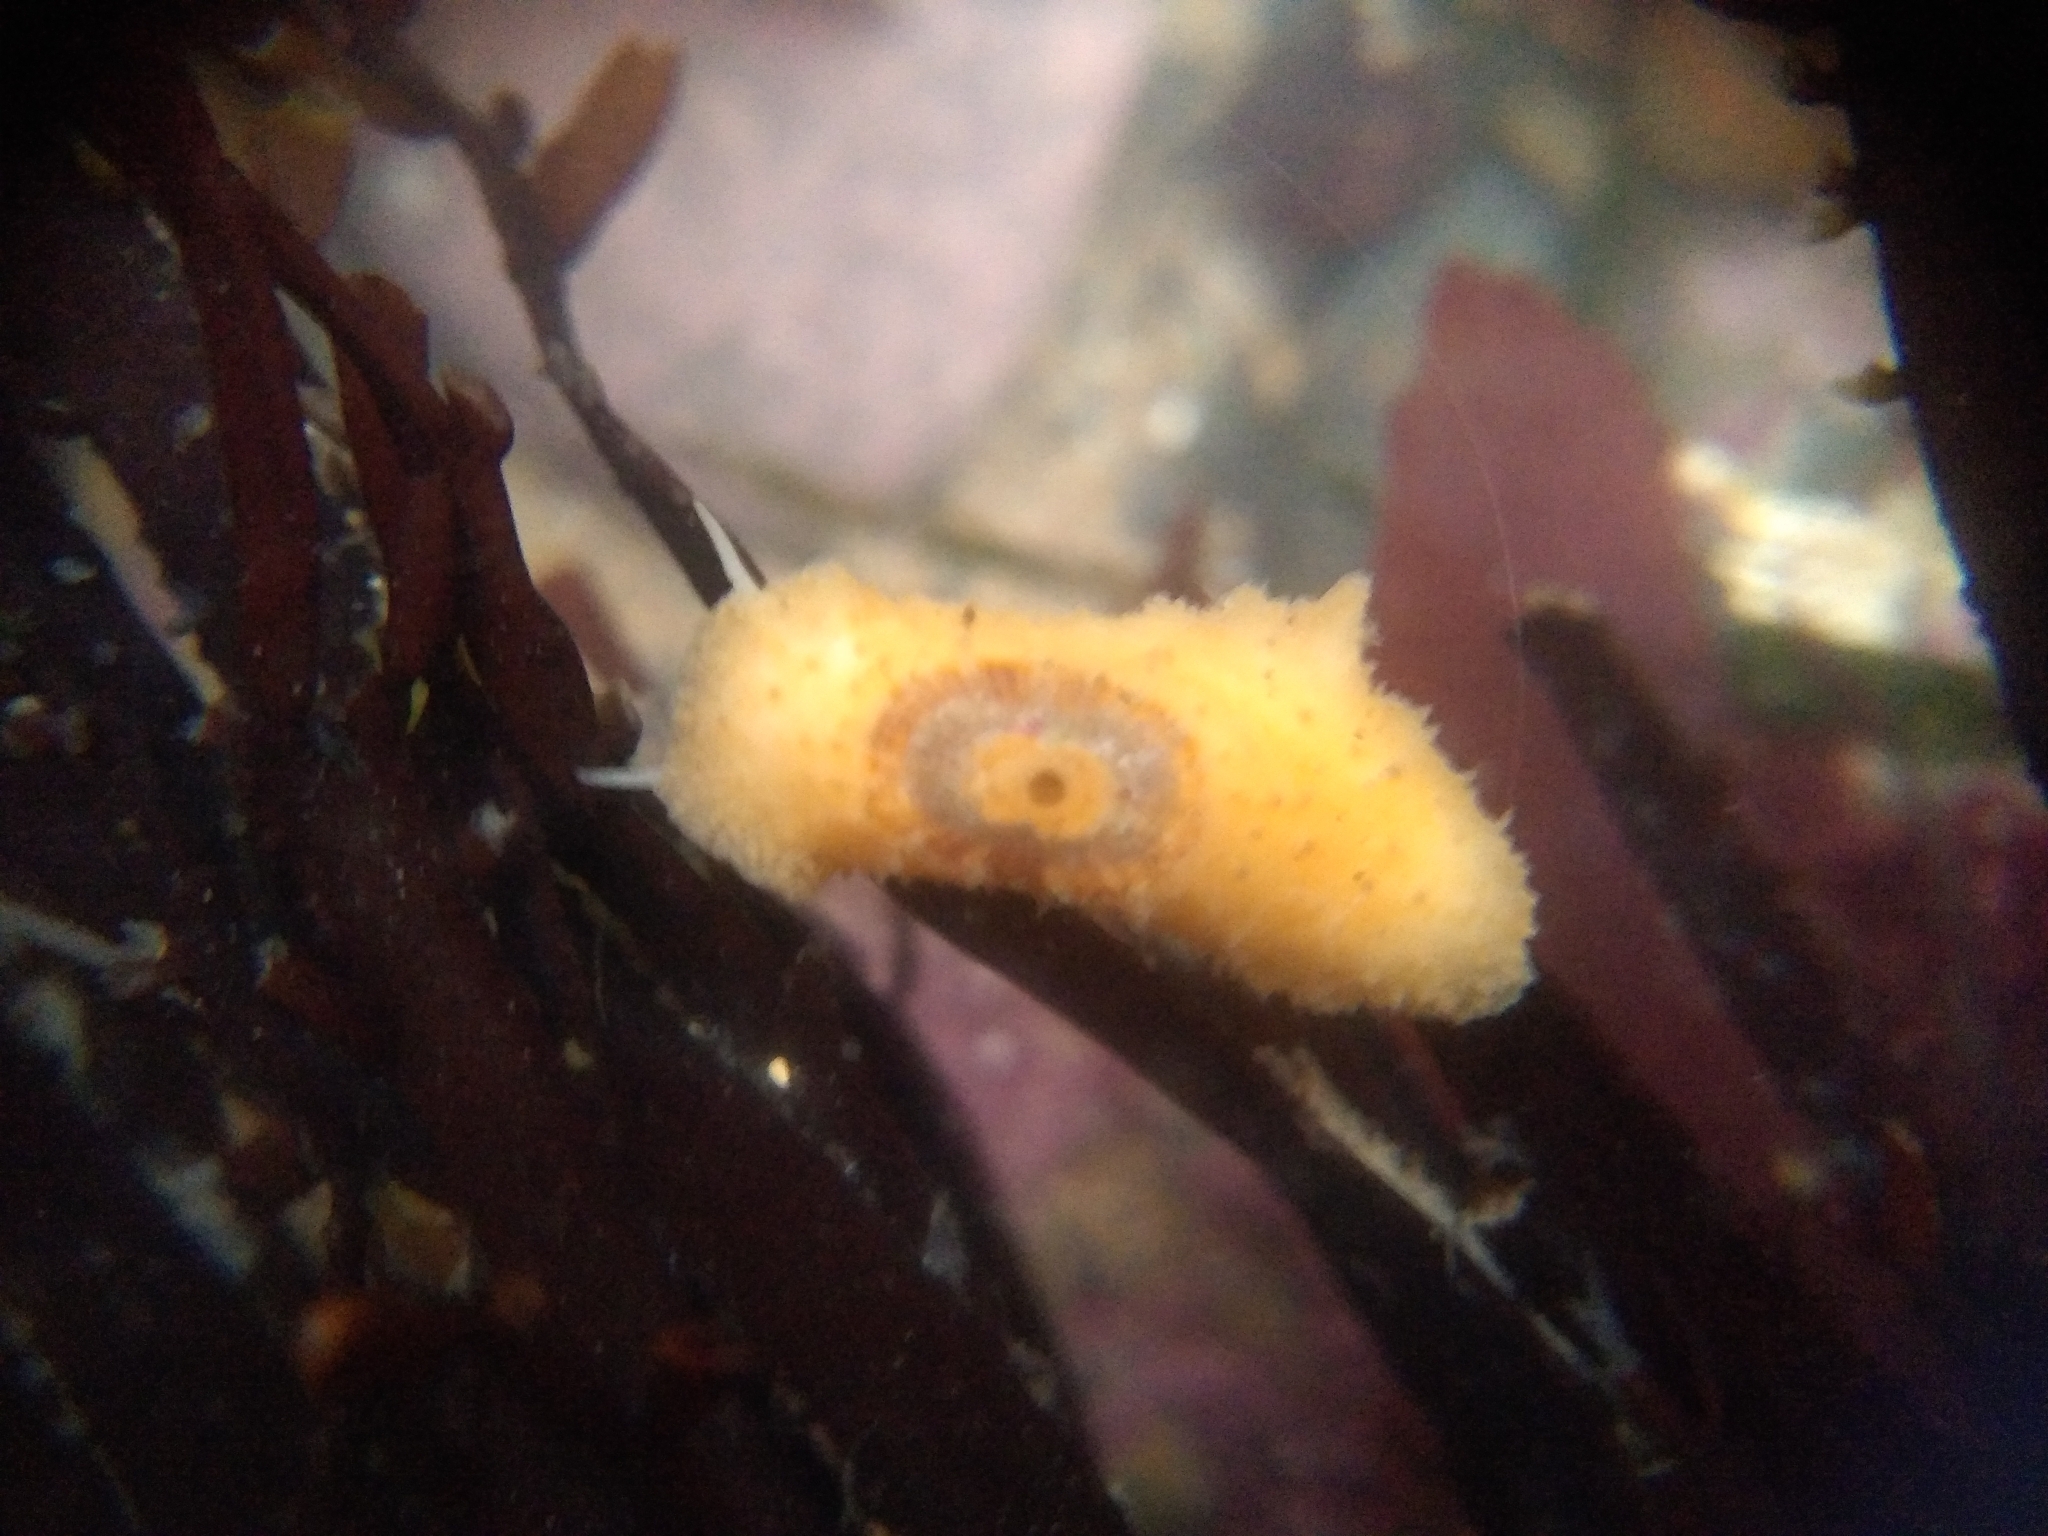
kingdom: Animalia
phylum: Mollusca
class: Gastropoda
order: Lepetellida
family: Fissurellidae
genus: Fissurellidea
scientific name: Fissurellidea bimaculata
